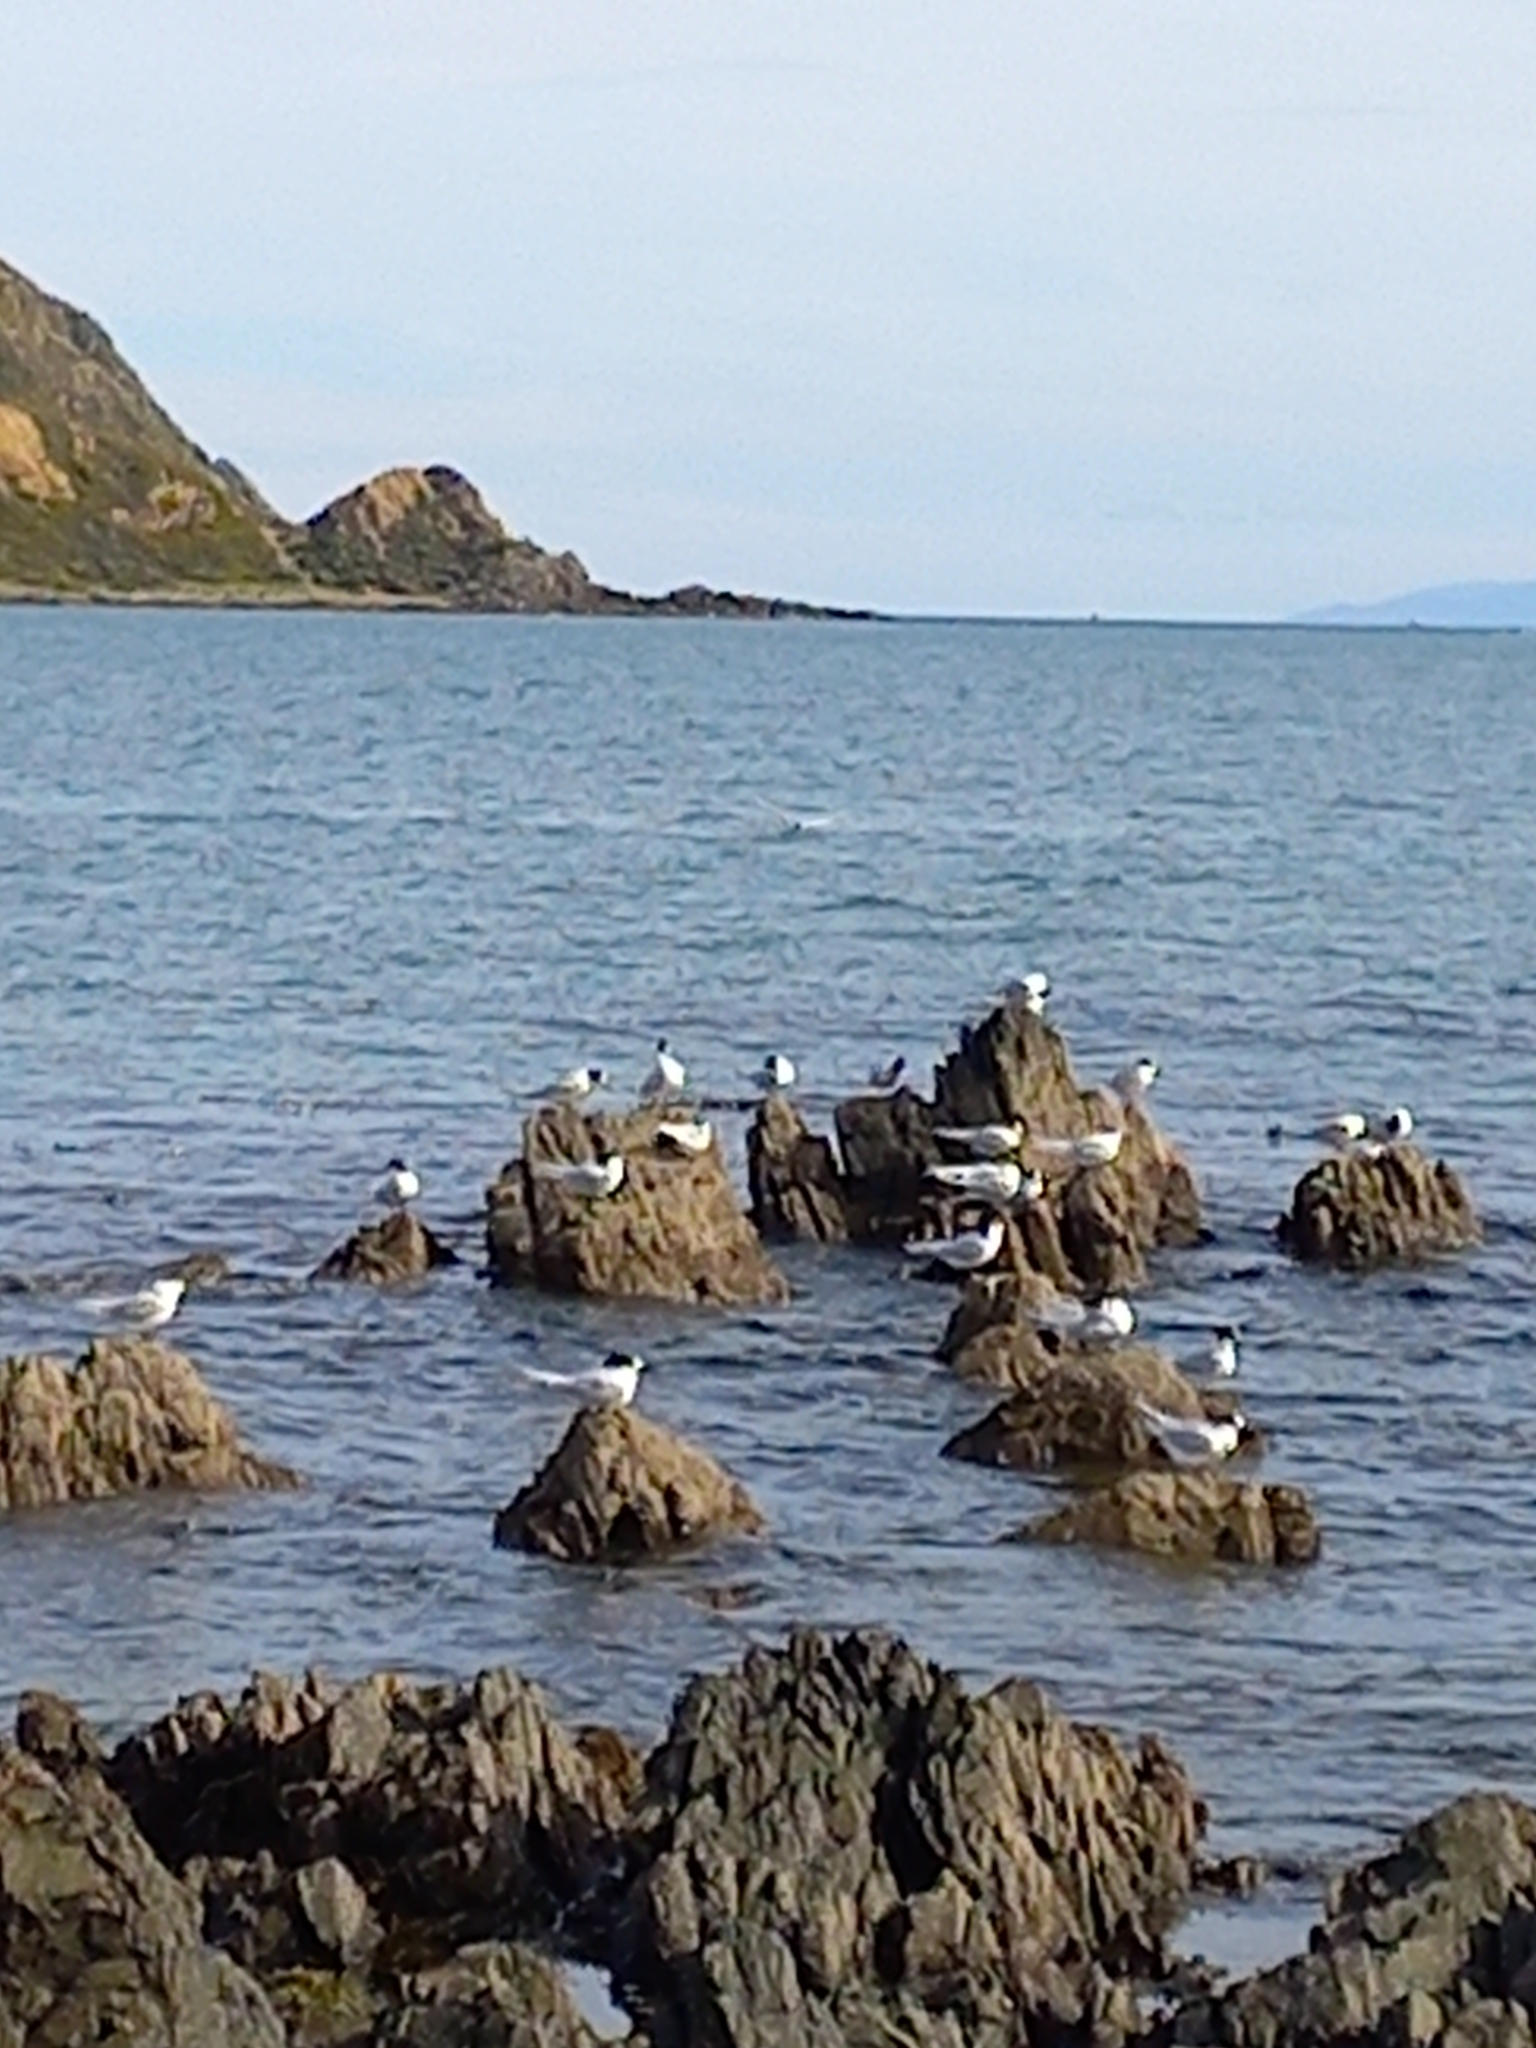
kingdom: Animalia
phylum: Chordata
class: Aves
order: Charadriiformes
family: Laridae
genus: Sterna
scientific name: Sterna striata
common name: White-fronted tern
